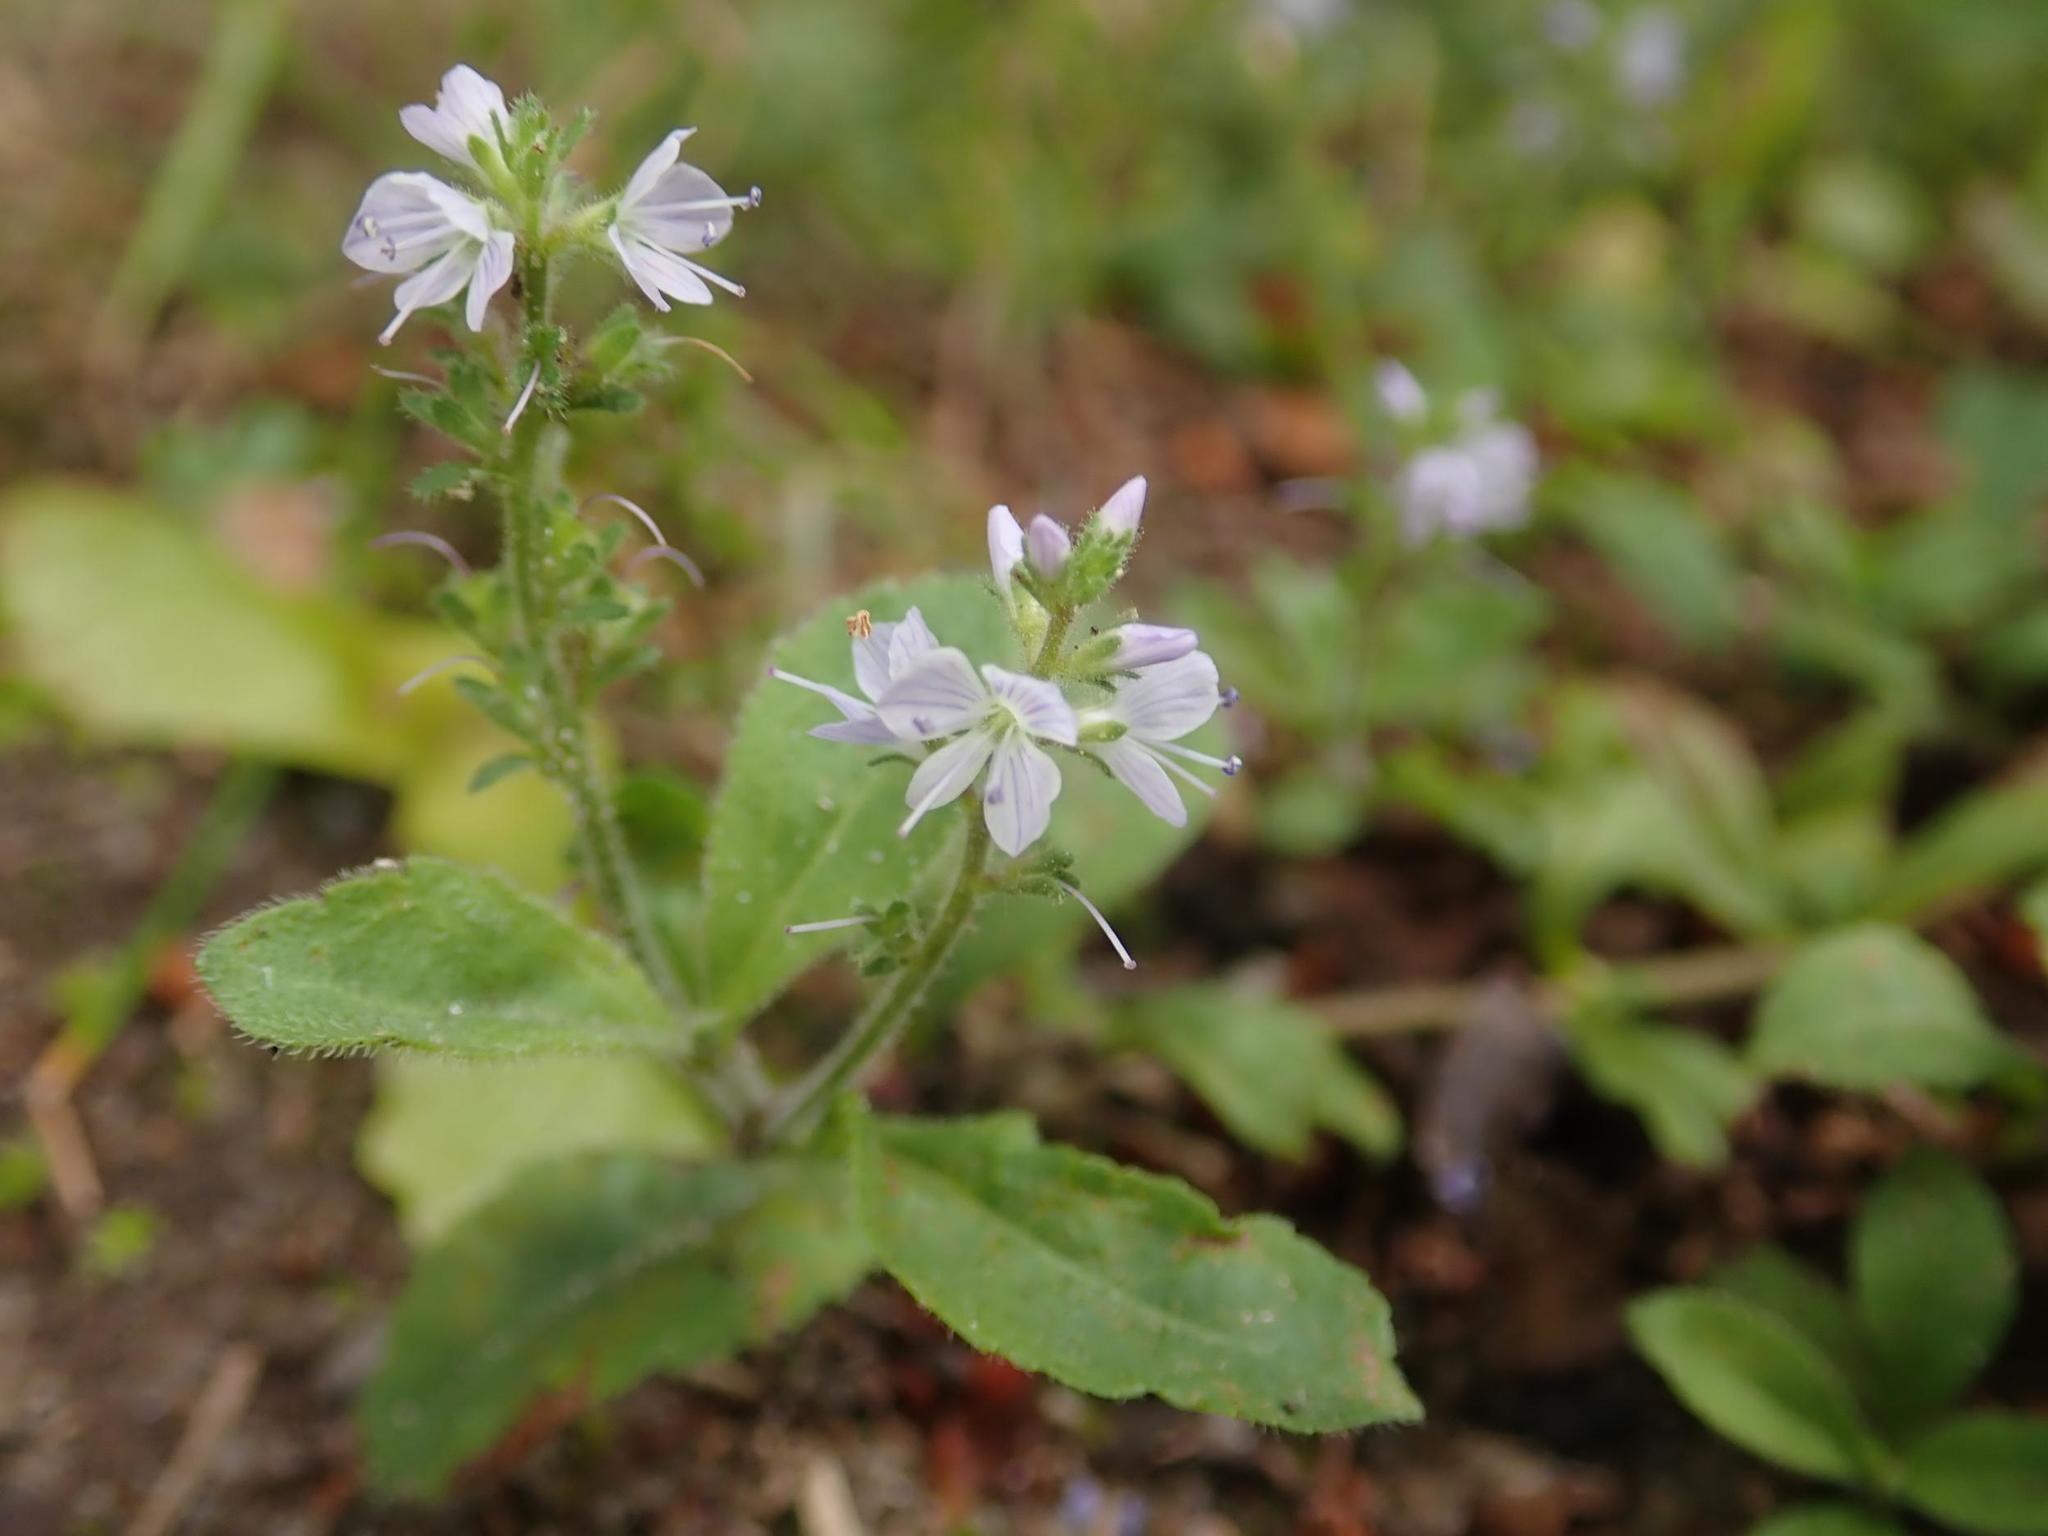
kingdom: Plantae
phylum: Tracheophyta
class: Magnoliopsida
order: Lamiales
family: Plantaginaceae
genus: Veronica
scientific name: Veronica officinalis
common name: Common speedwell
